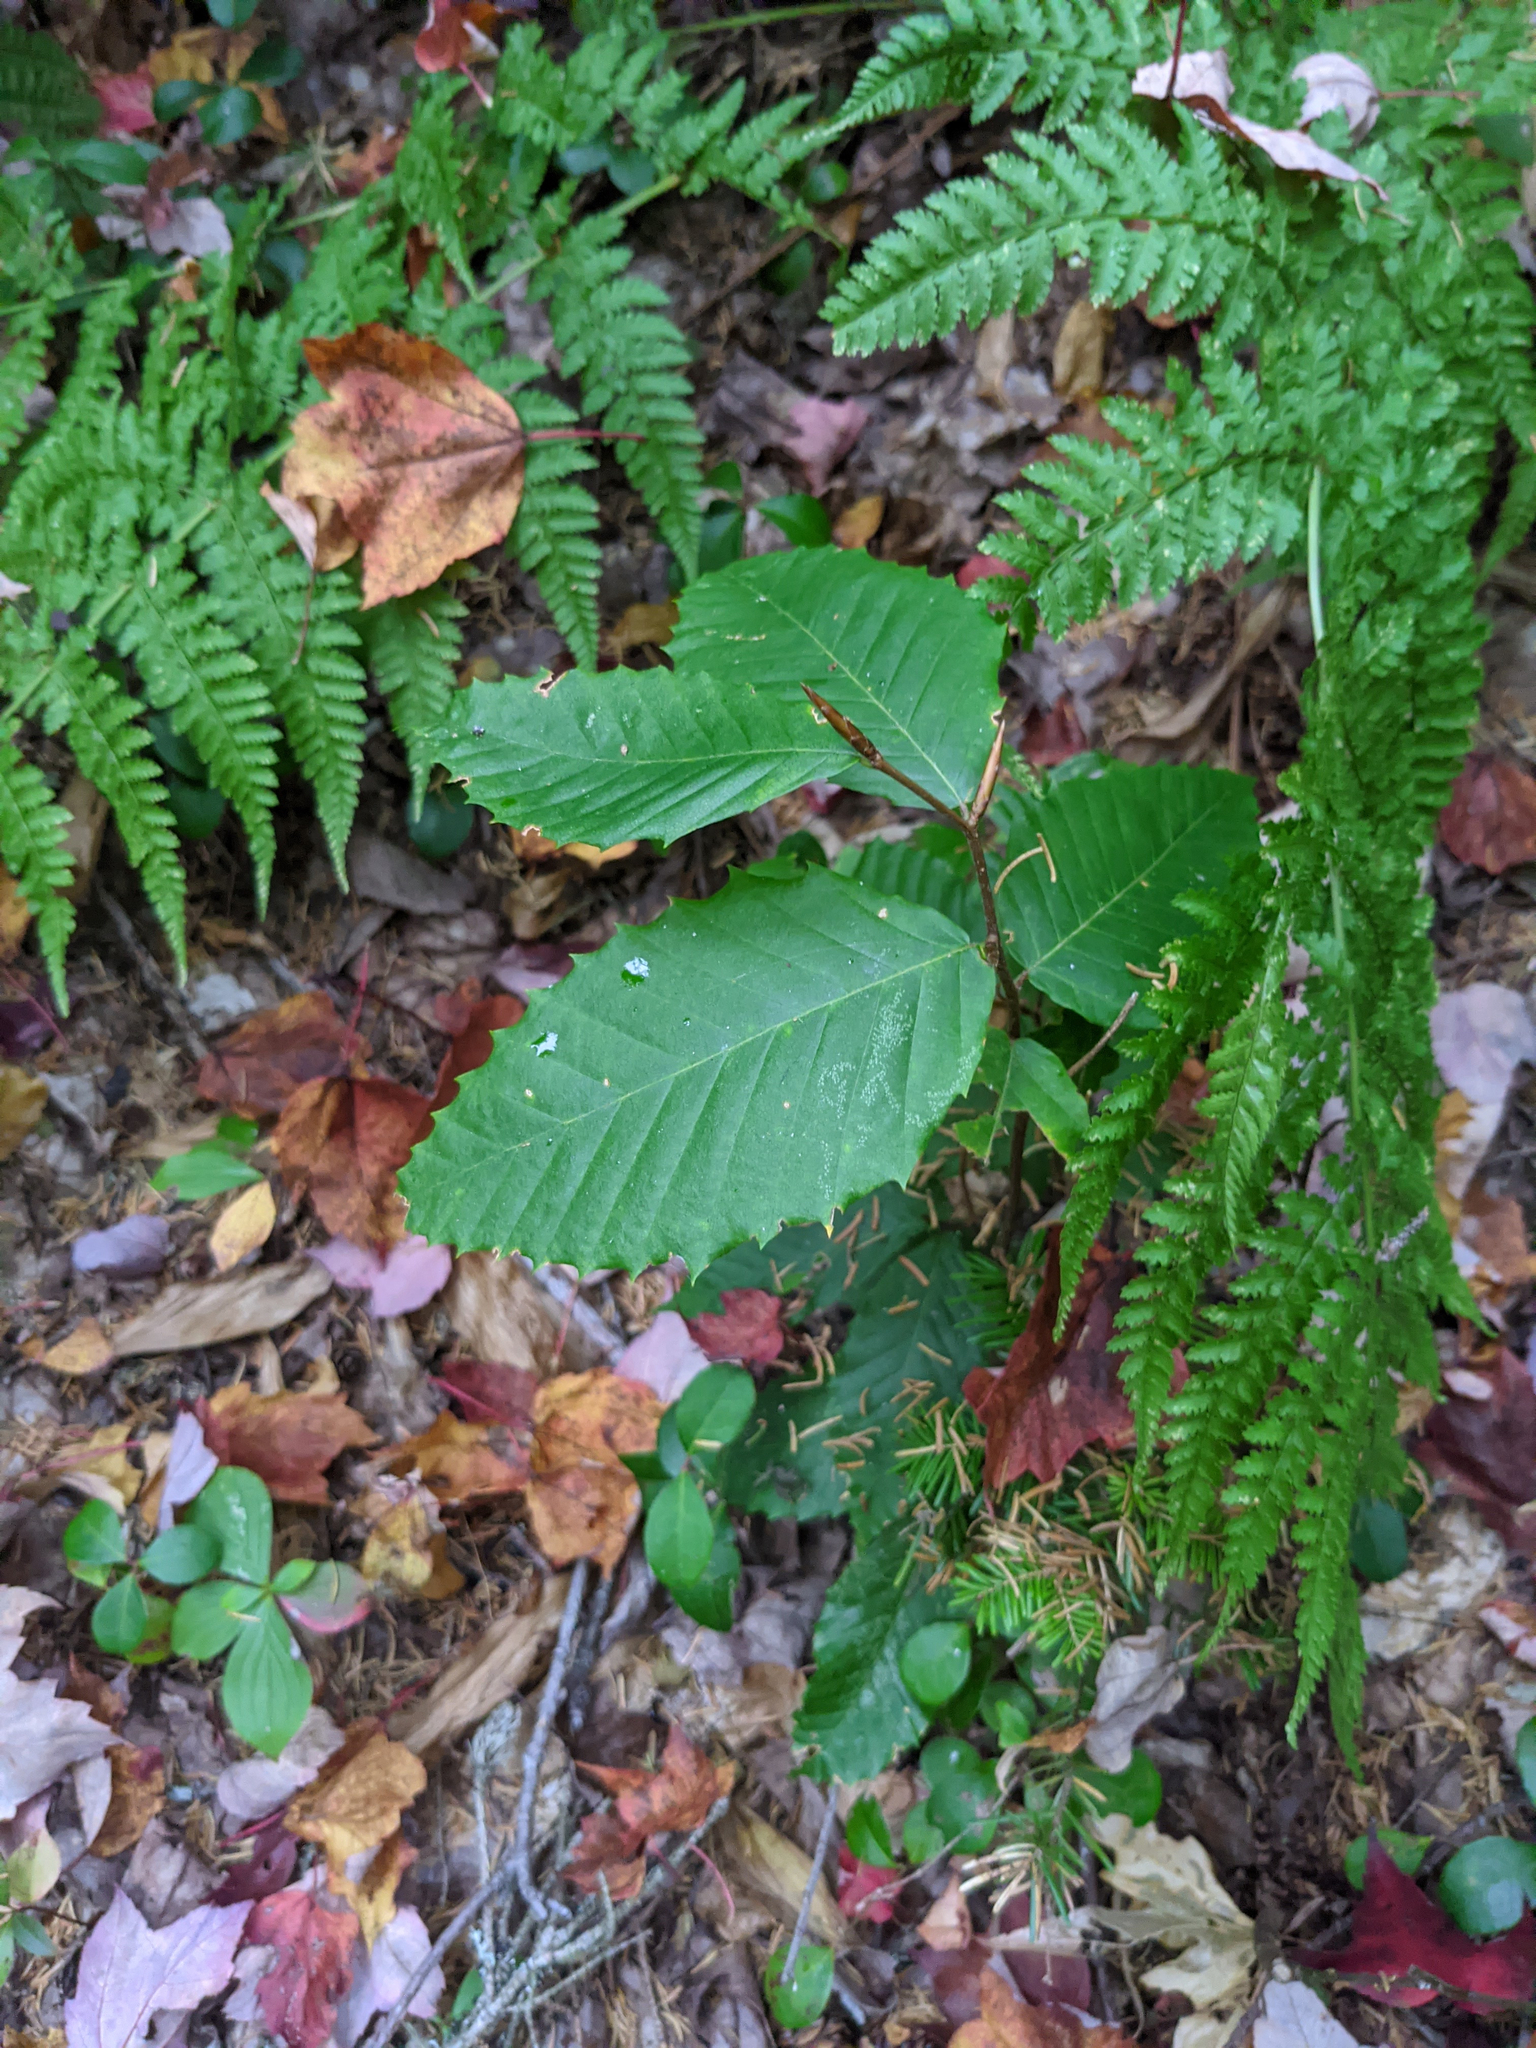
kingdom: Plantae
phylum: Tracheophyta
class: Magnoliopsida
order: Fagales
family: Fagaceae
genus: Fagus
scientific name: Fagus grandifolia
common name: American beech
